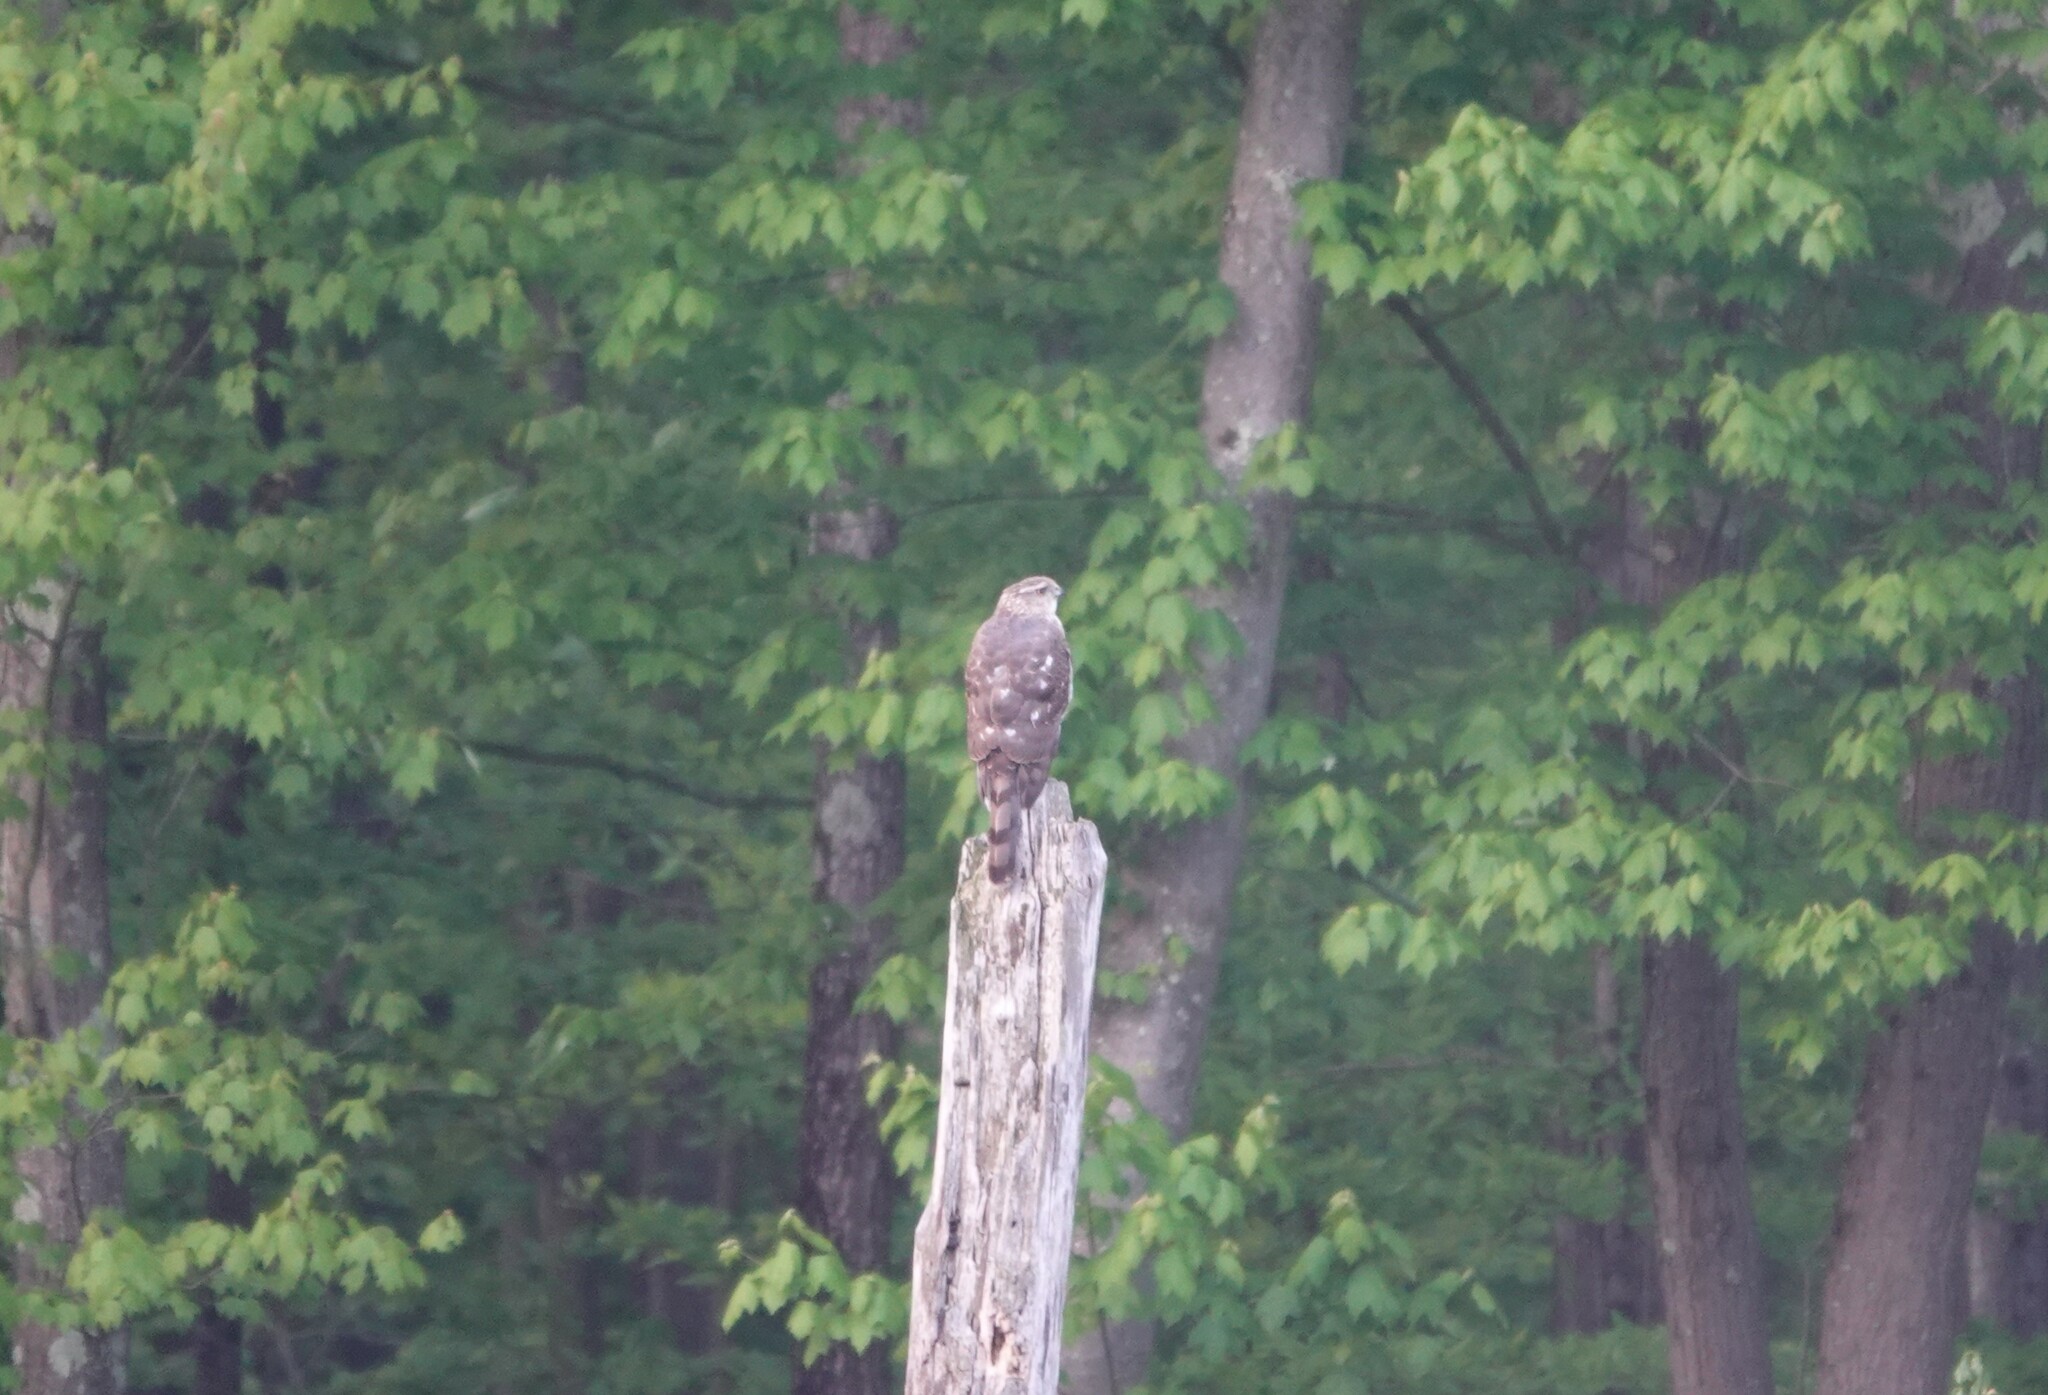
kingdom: Animalia
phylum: Chordata
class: Aves
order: Accipitriformes
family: Accipitridae
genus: Accipiter
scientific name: Accipiter cooperii
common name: Cooper's hawk
